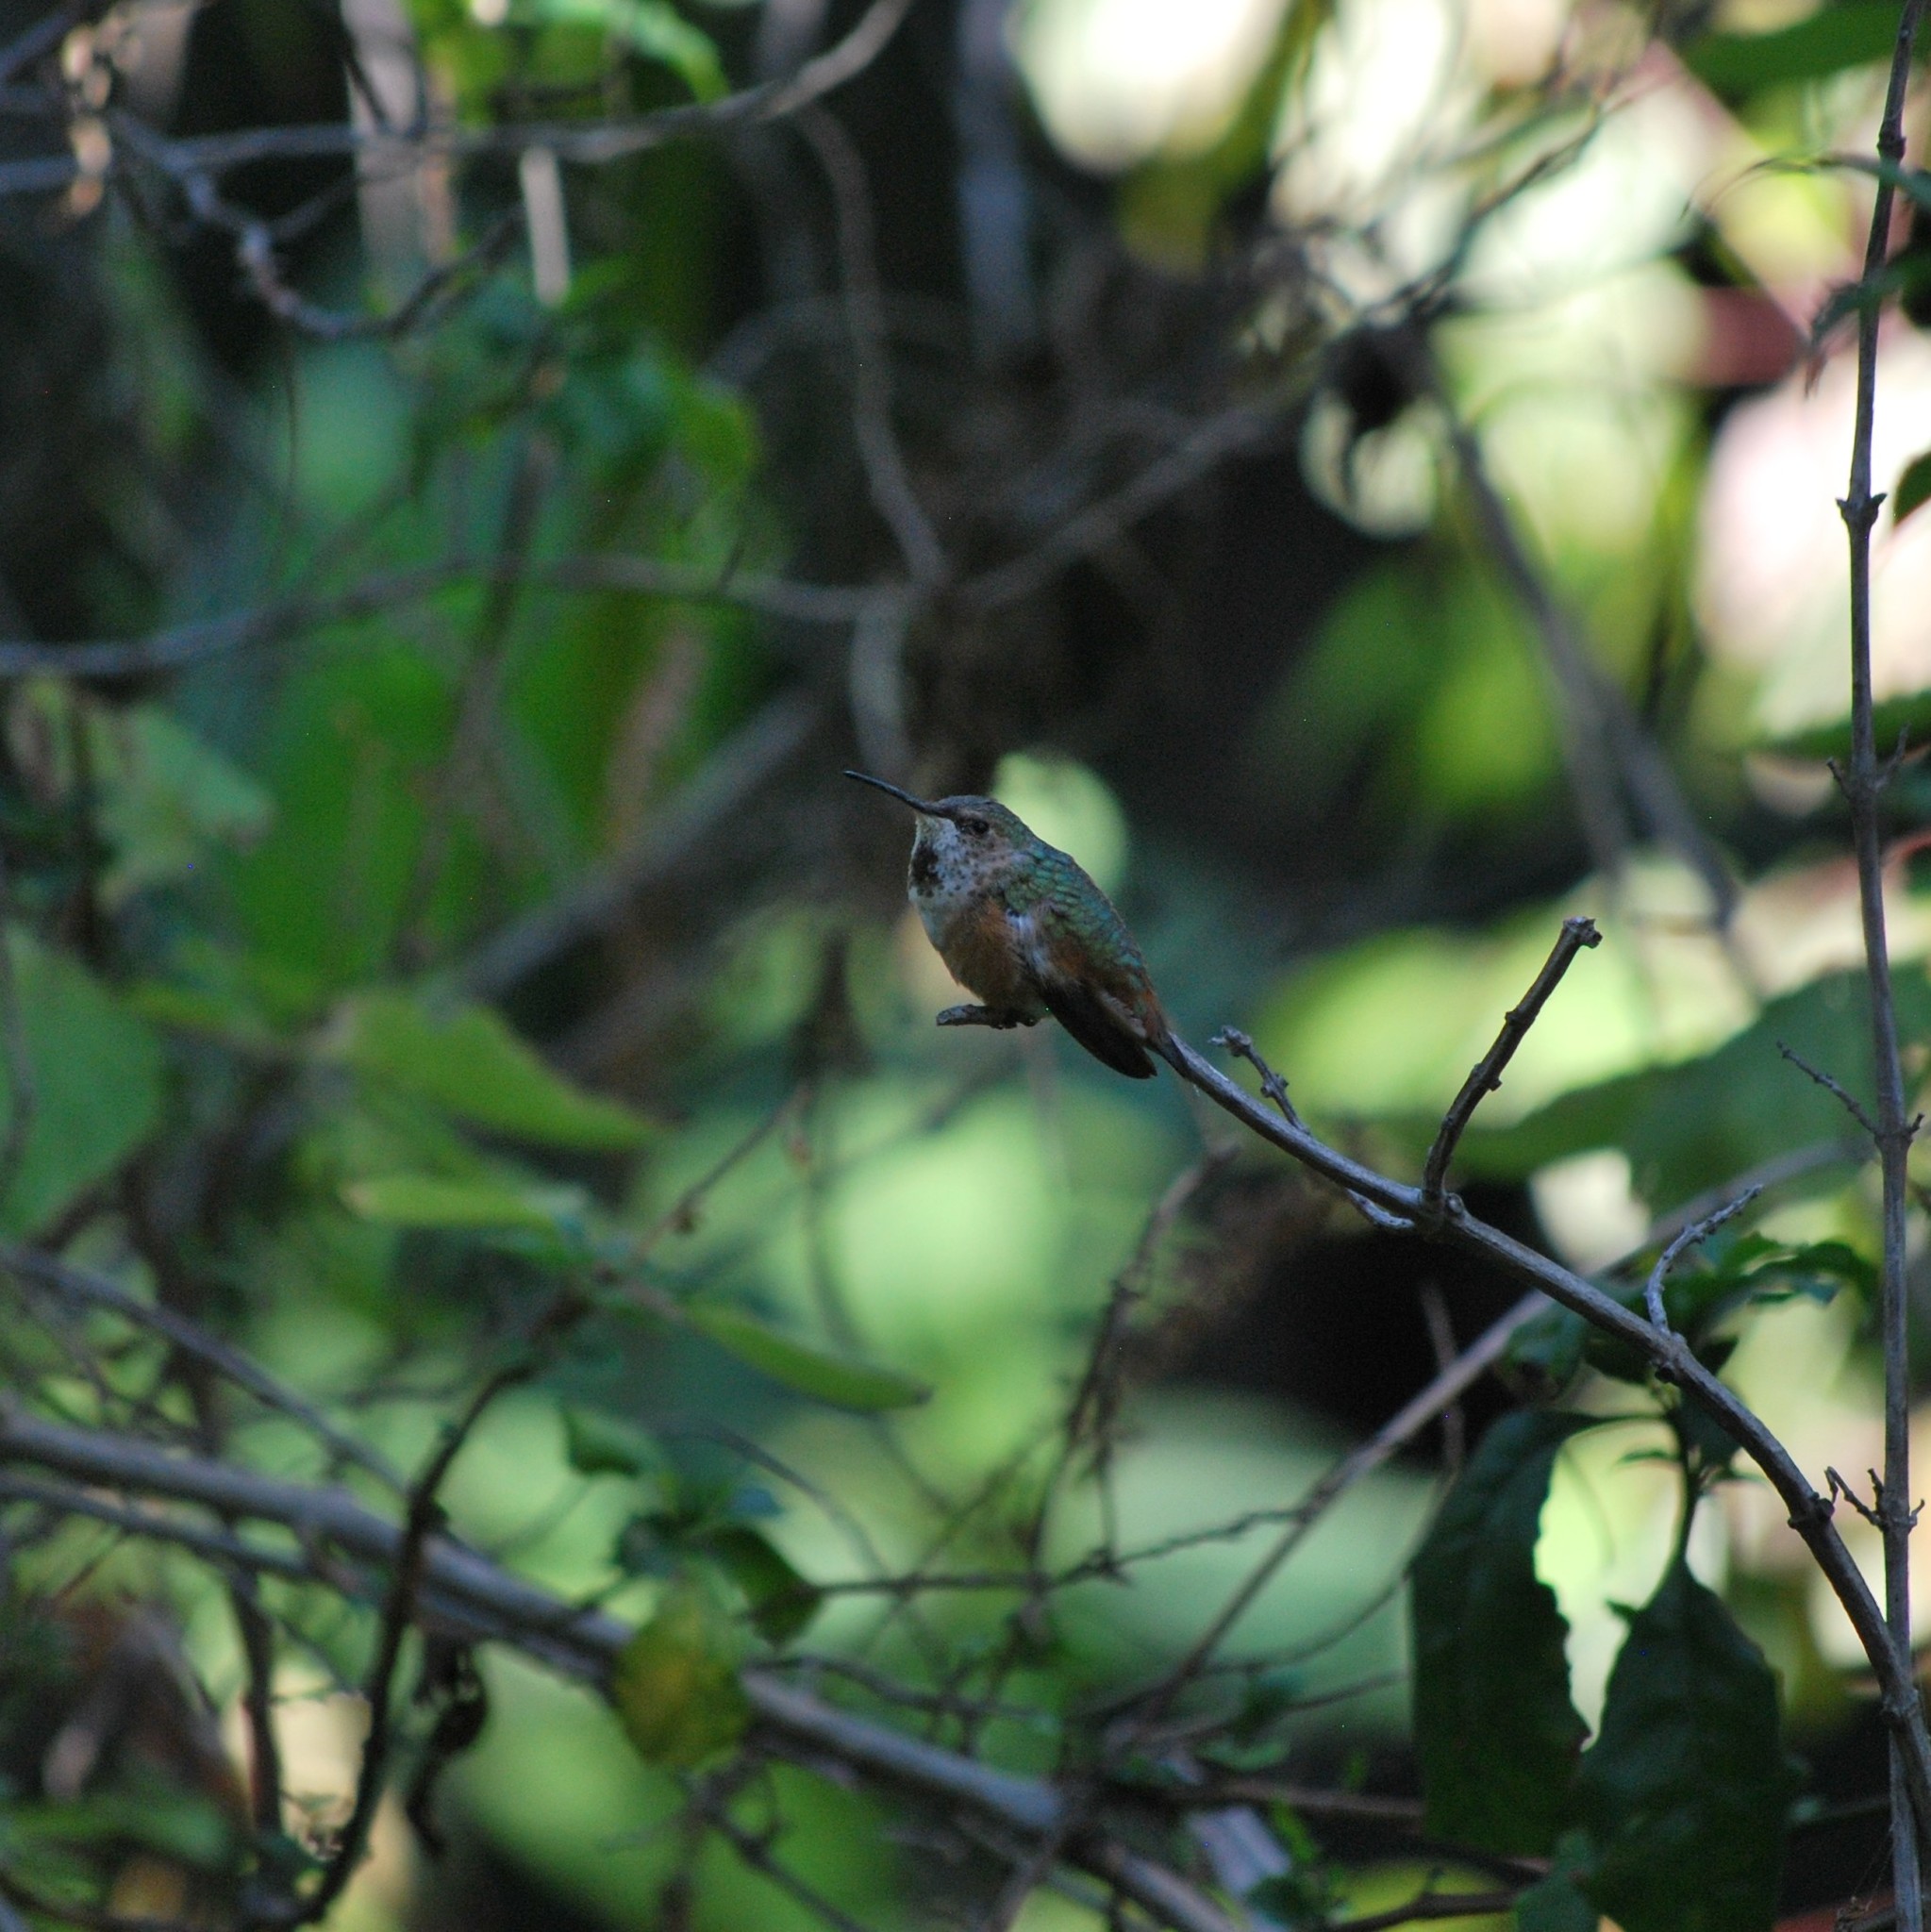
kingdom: Animalia
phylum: Chordata
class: Aves
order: Apodiformes
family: Trochilidae
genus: Selasphorus
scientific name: Selasphorus
